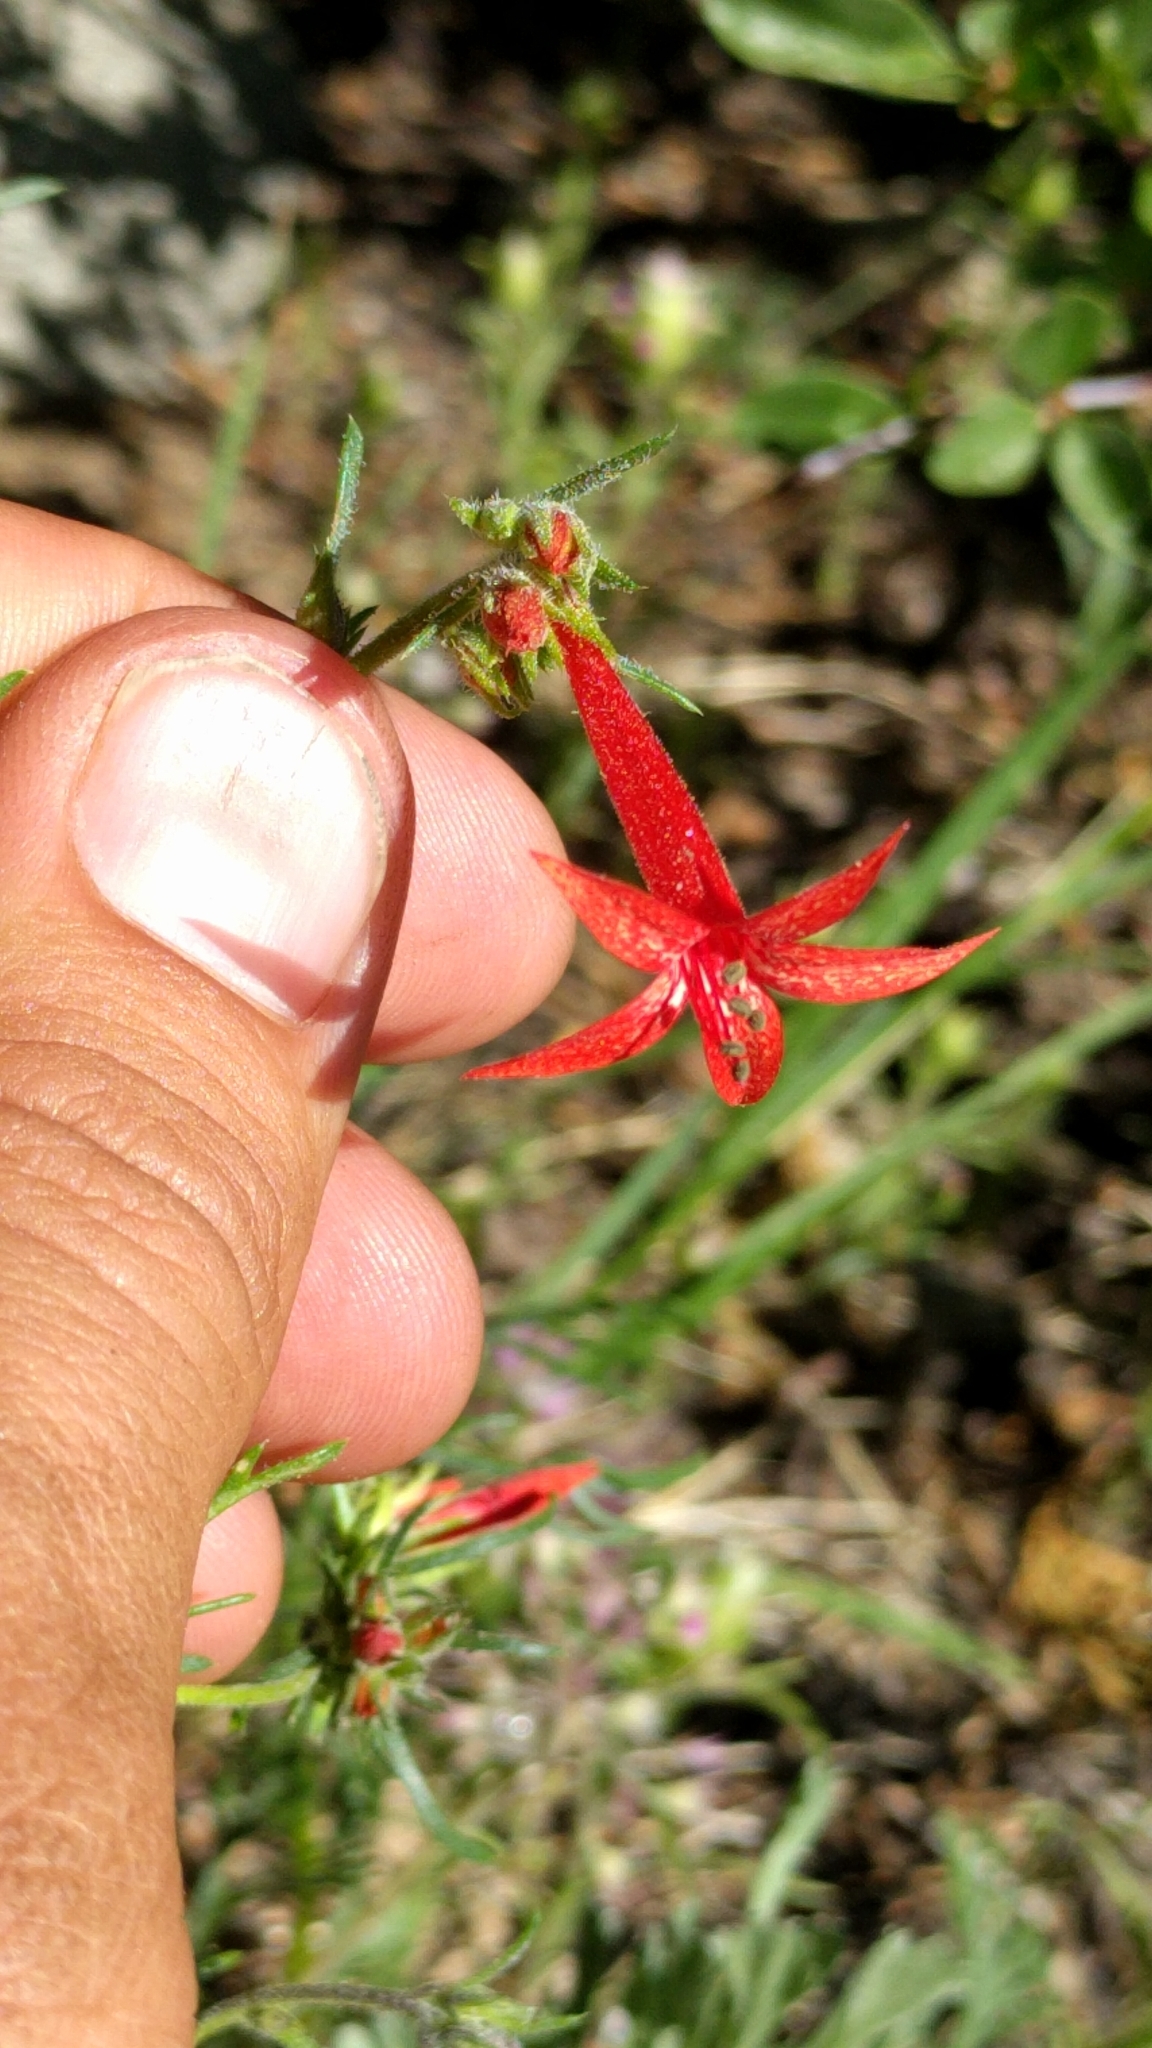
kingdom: Plantae
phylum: Tracheophyta
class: Magnoliopsida
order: Ericales
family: Polemoniaceae
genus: Ipomopsis
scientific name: Ipomopsis aggregata
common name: Scarlet gilia
